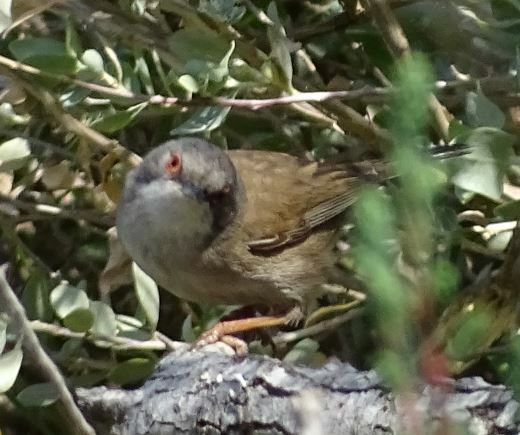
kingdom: Animalia
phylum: Chordata
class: Aves
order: Passeriformes
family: Sylviidae
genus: Curruca
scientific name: Curruca melanocephala
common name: Sardinian warbler
